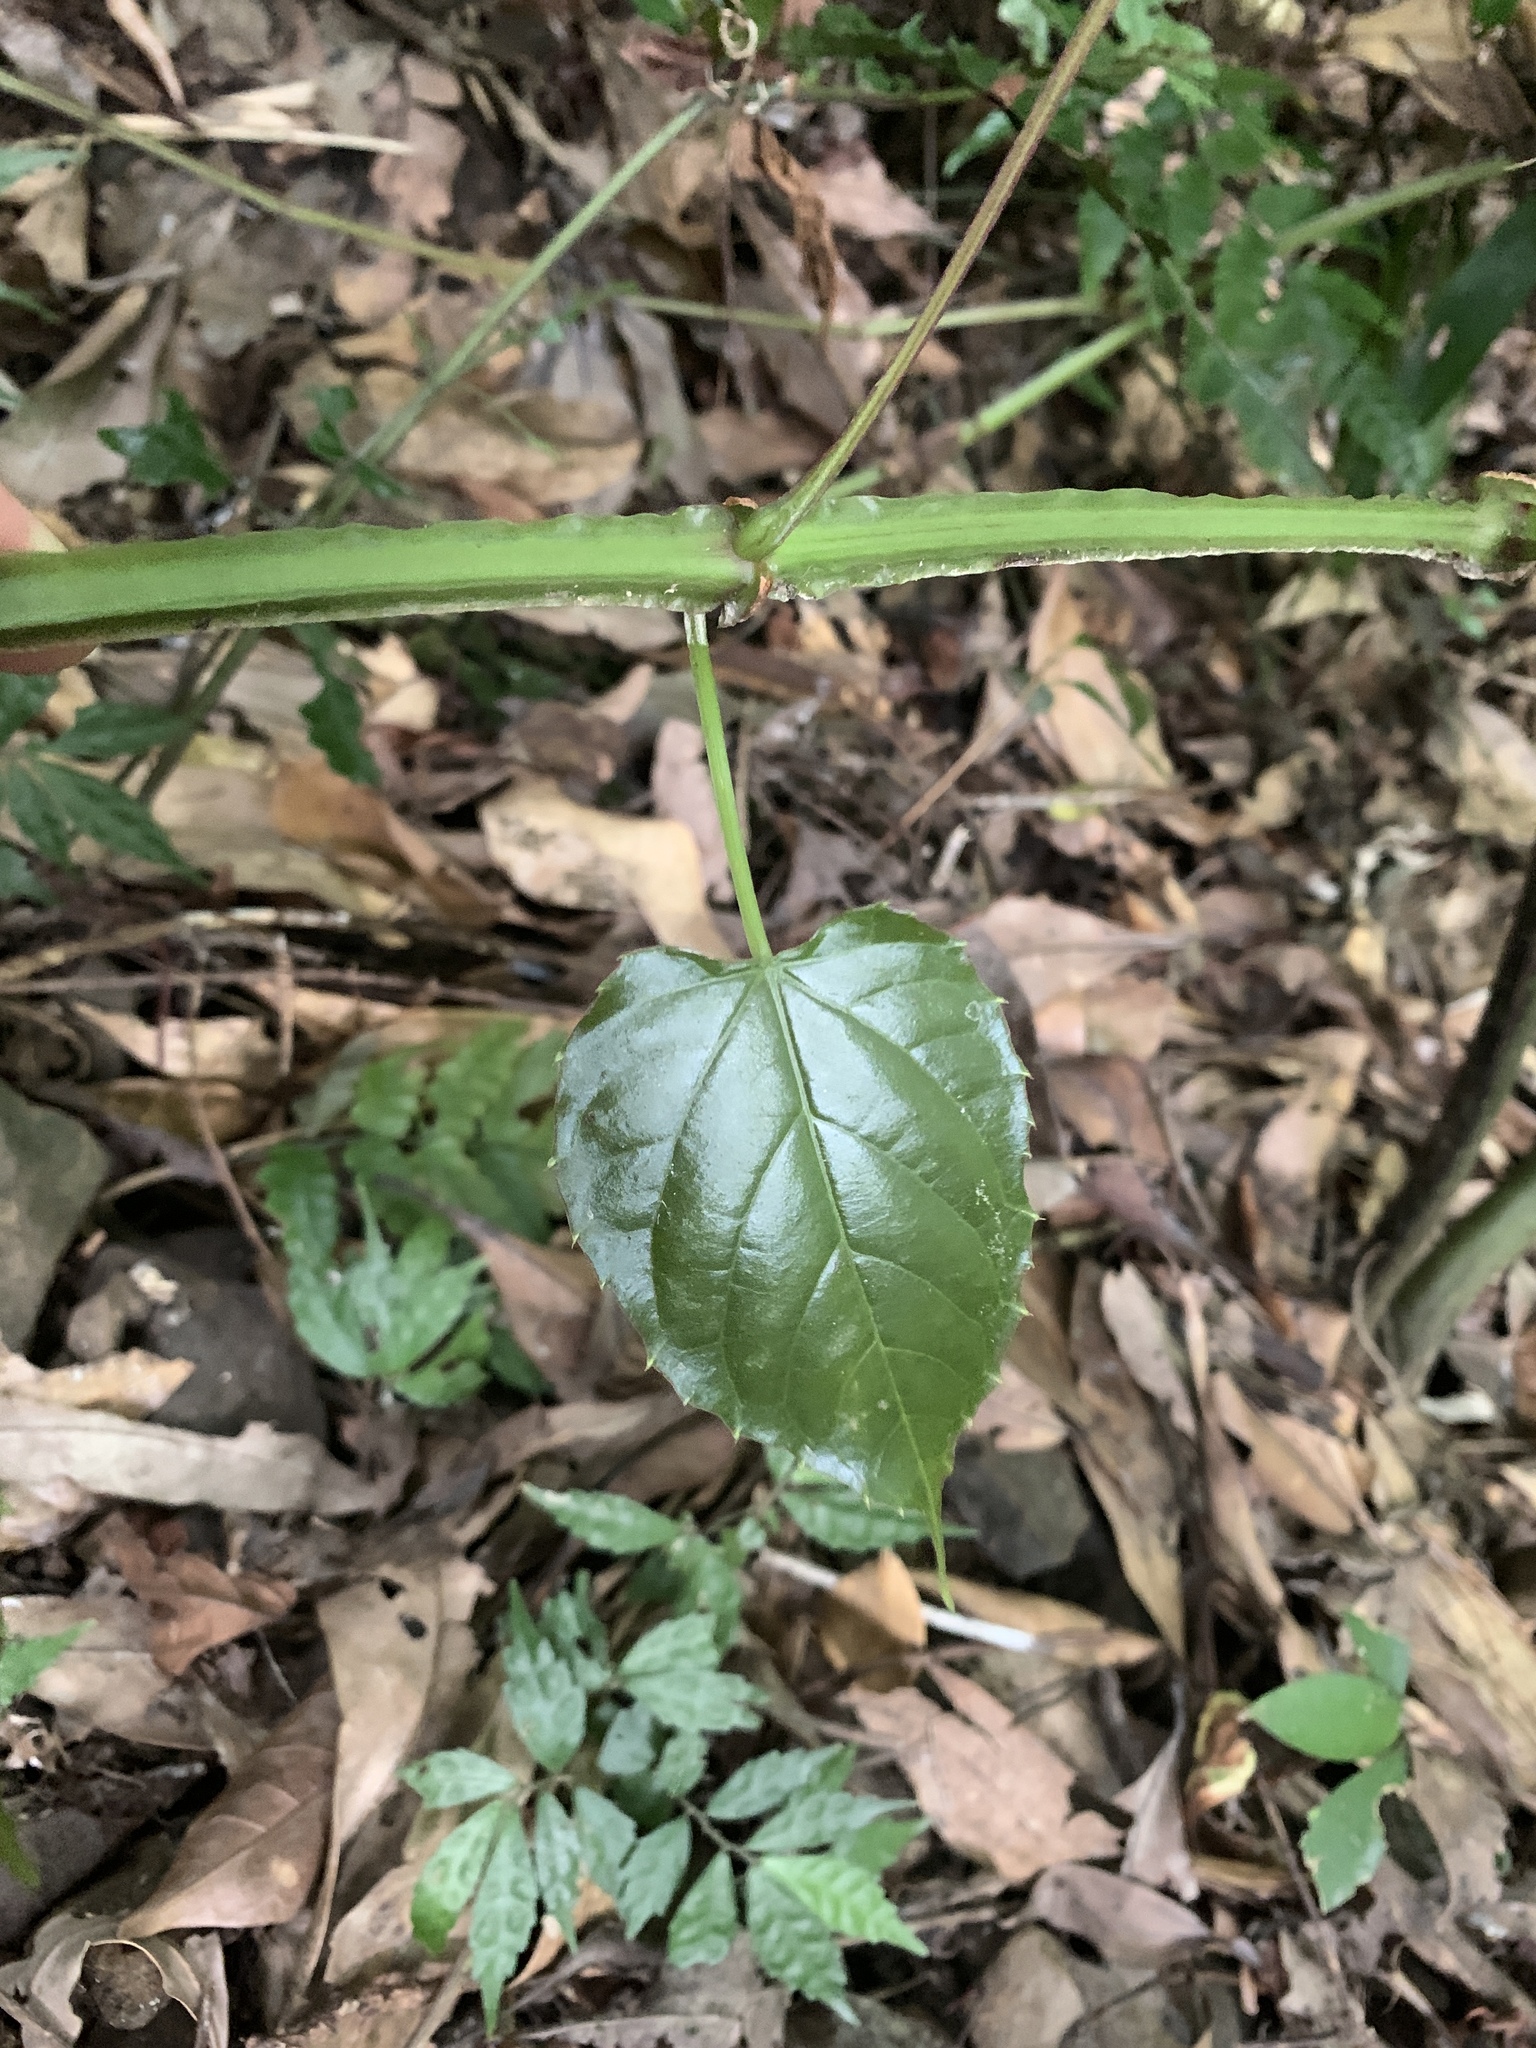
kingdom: Plantae
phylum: Tracheophyta
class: Magnoliopsida
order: Vitales
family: Vitaceae
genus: Cissus
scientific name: Cissus pteroclada
